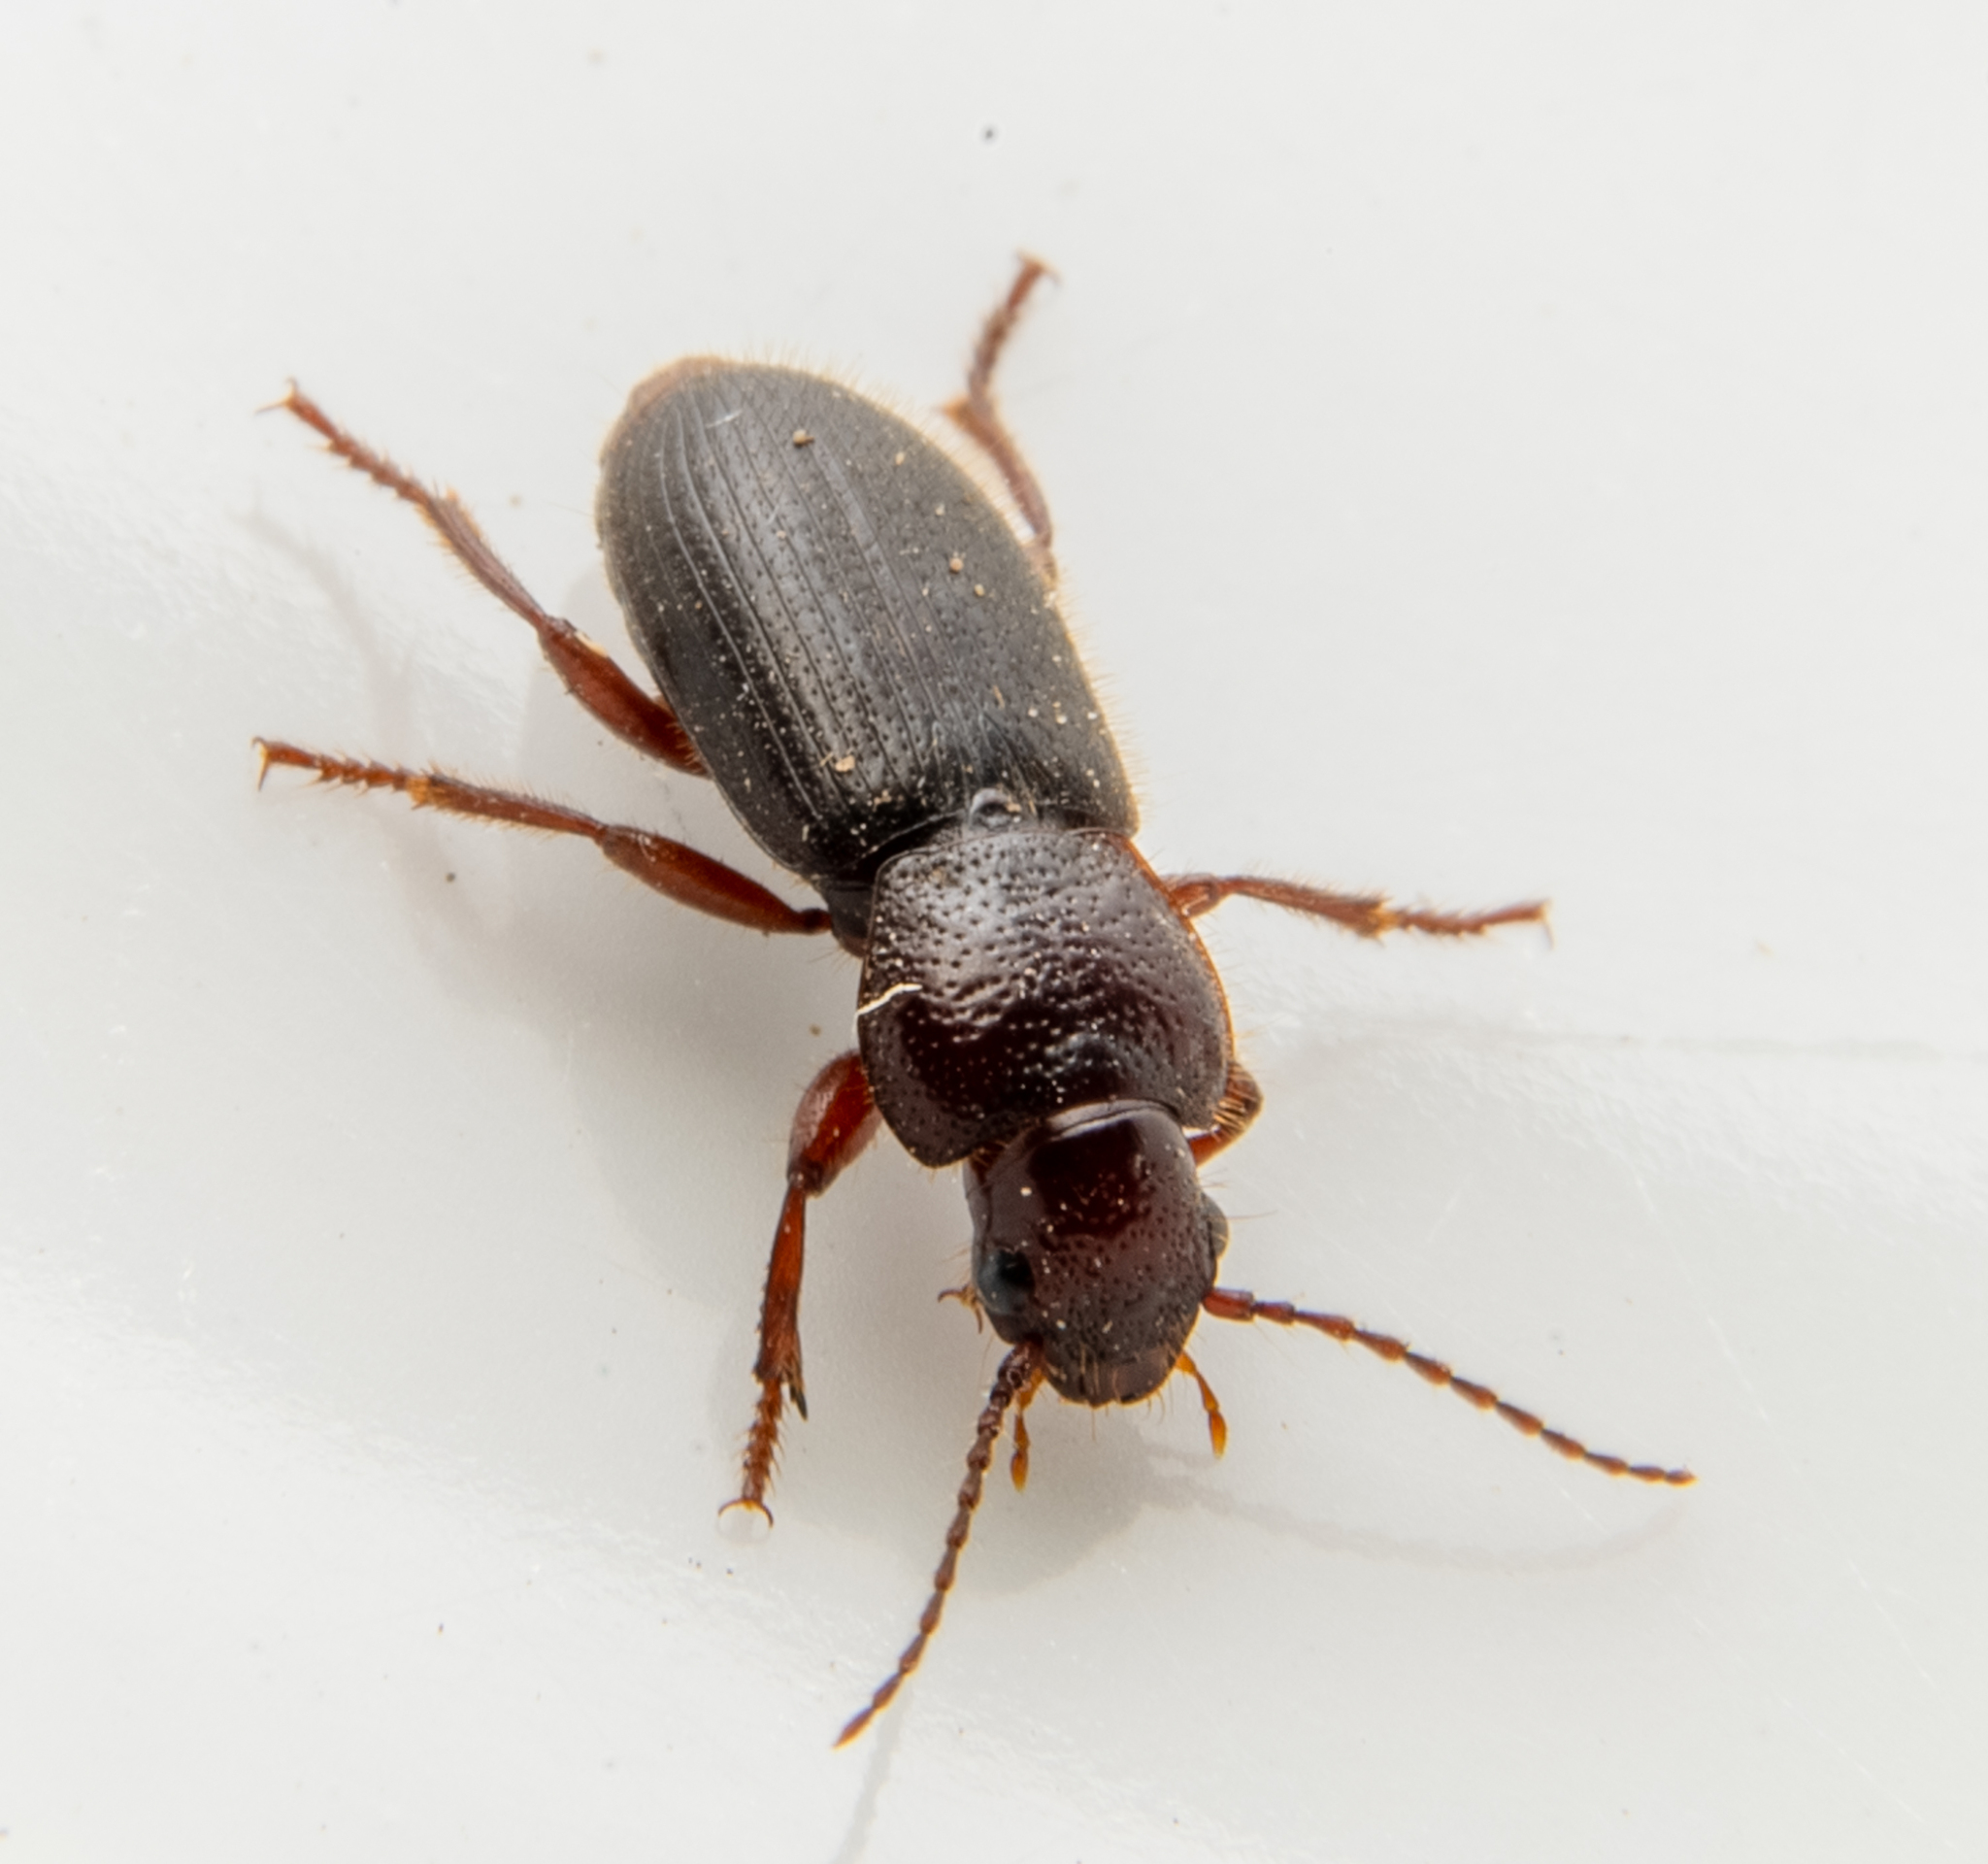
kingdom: Animalia
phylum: Arthropoda
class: Insecta
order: Coleoptera
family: Carabidae
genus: Dicheirus
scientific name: Dicheirus dilatatus
